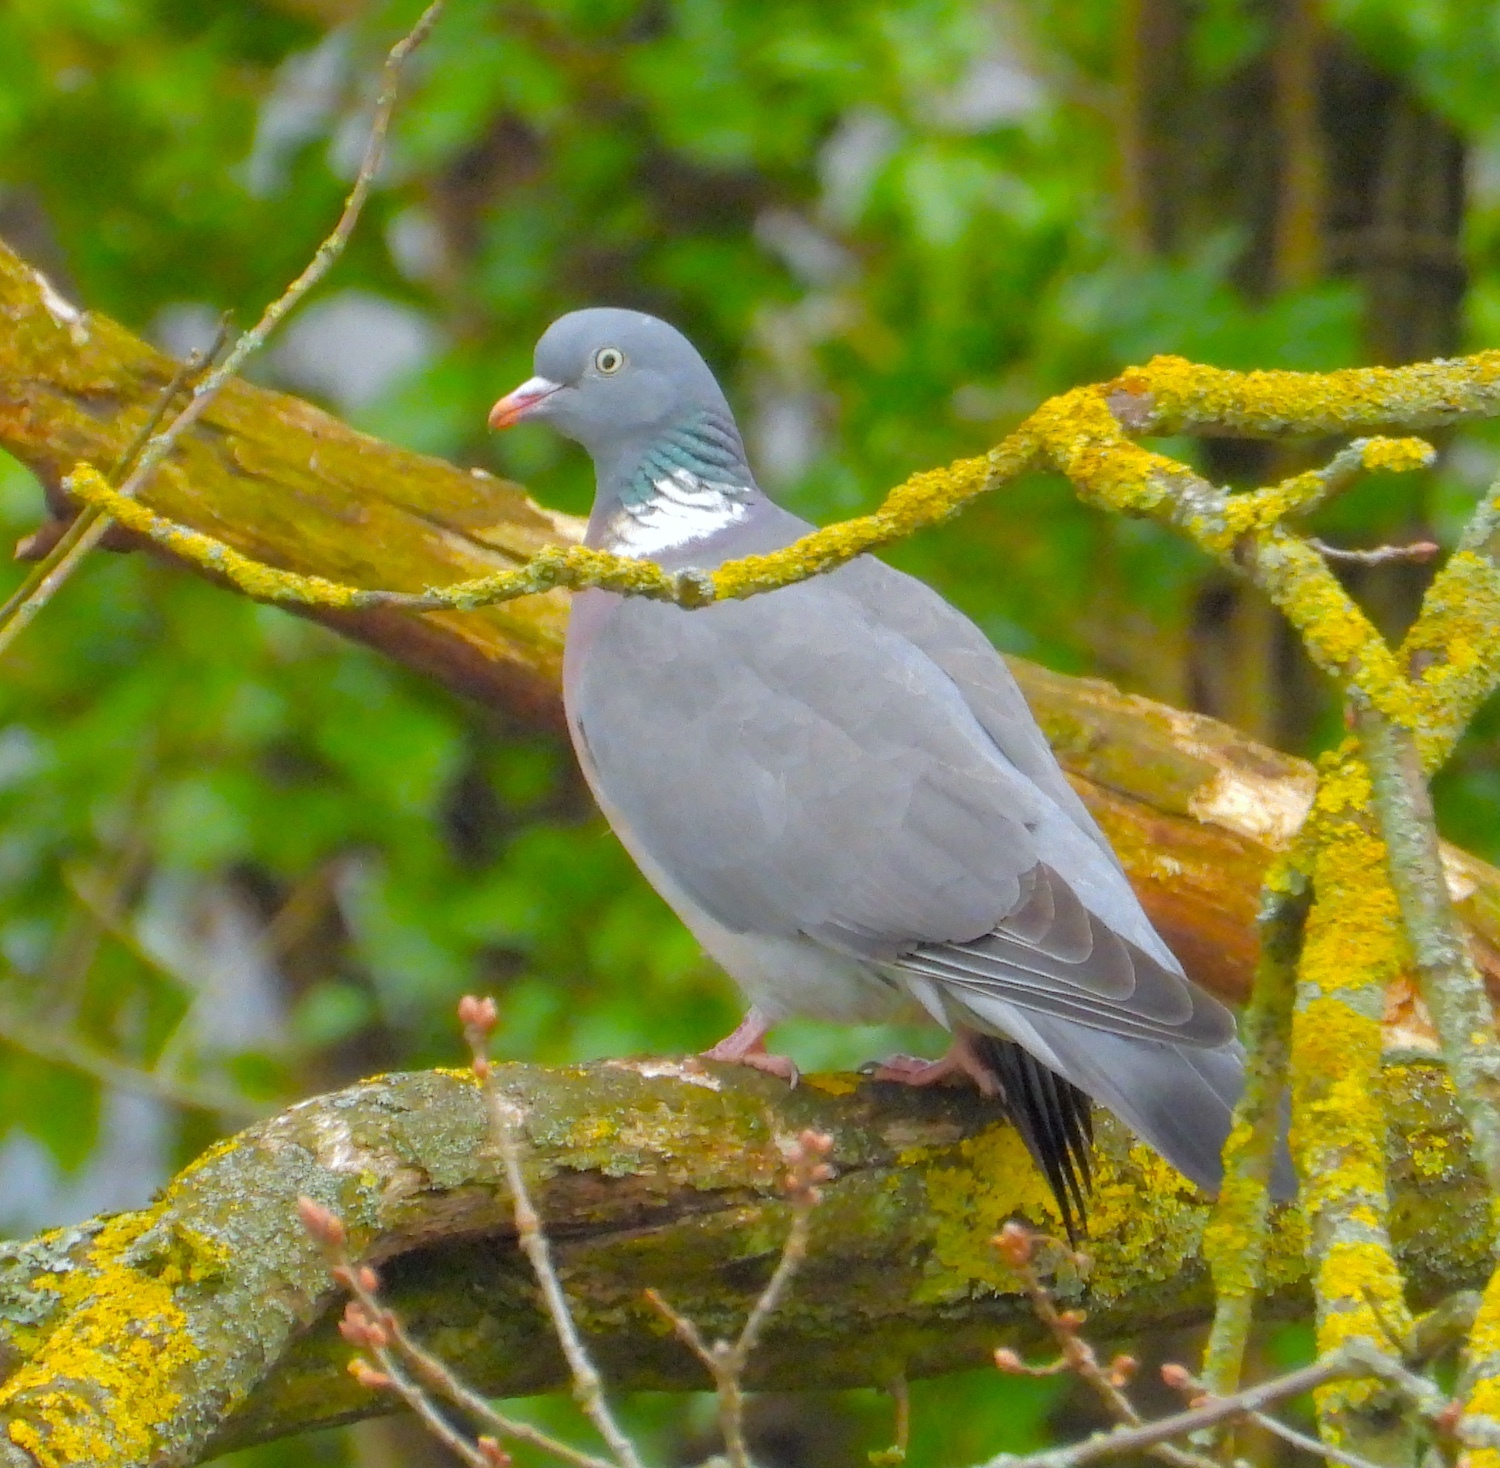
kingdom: Animalia
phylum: Chordata
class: Aves
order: Columbiformes
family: Columbidae
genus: Columba
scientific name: Columba palumbus
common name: Common wood pigeon
